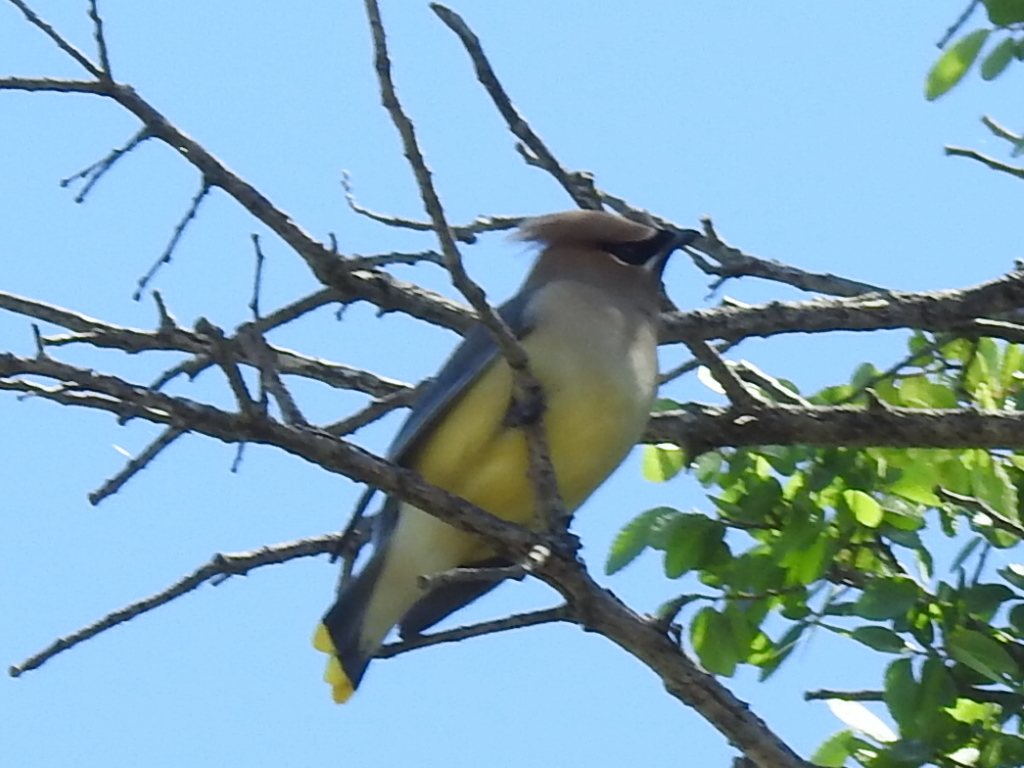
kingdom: Animalia
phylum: Chordata
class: Aves
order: Passeriformes
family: Bombycillidae
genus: Bombycilla
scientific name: Bombycilla cedrorum
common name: Cedar waxwing
